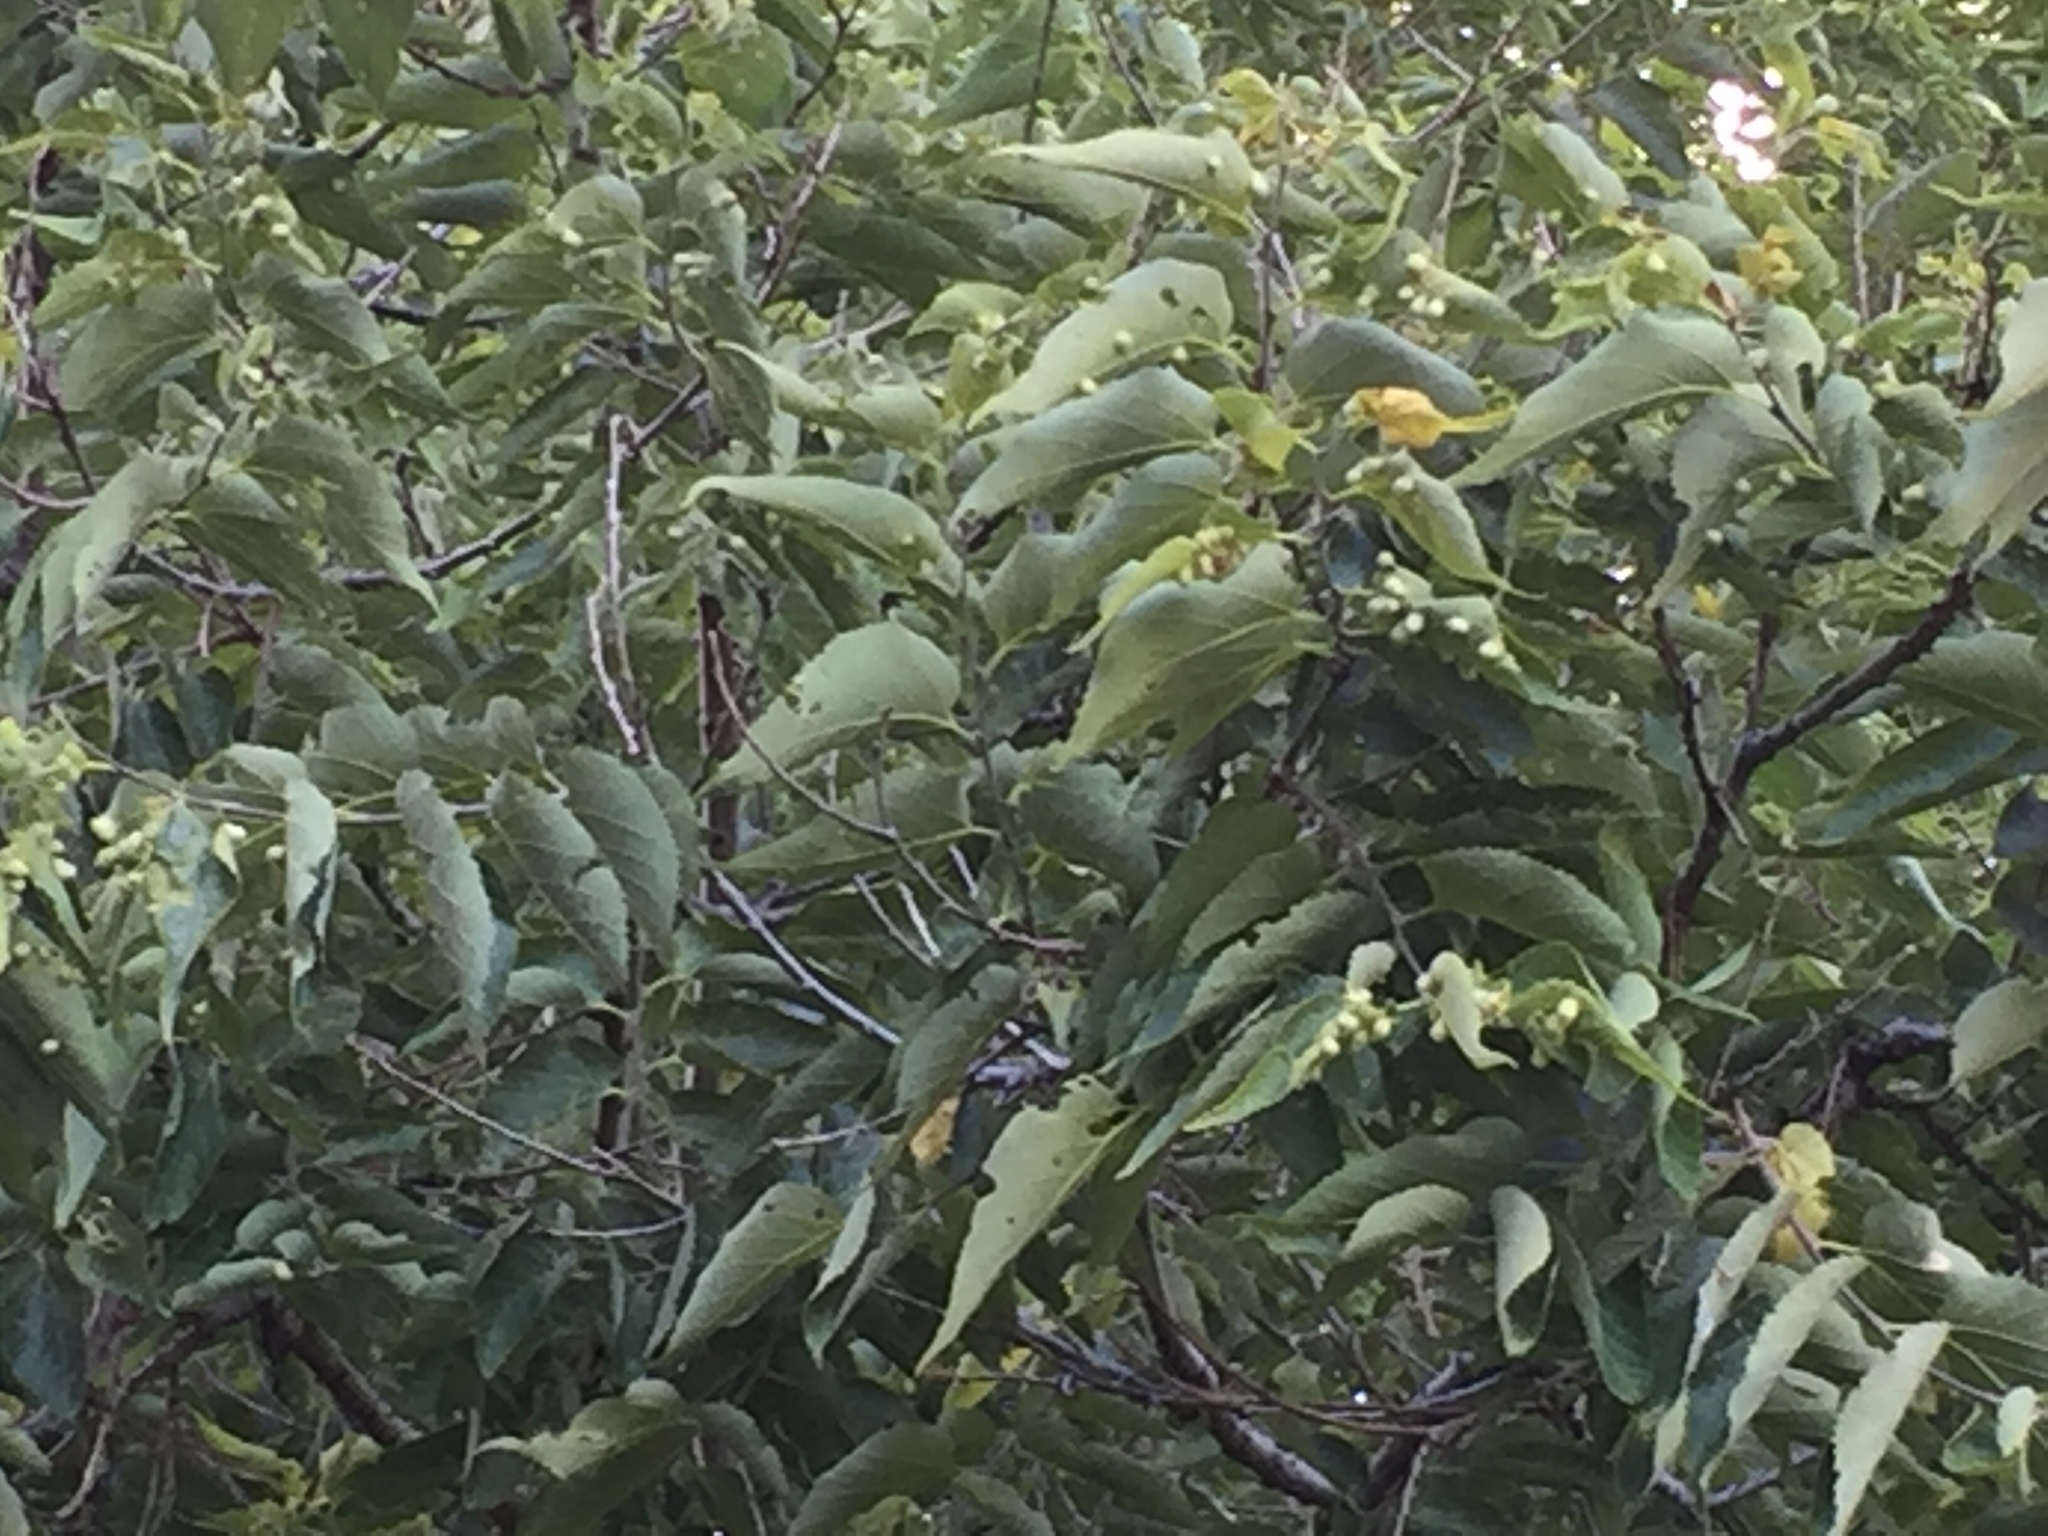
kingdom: Plantae
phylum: Tracheophyta
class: Magnoliopsida
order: Rosales
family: Cannabaceae
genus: Celtis
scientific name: Celtis occidentalis
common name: Common hackberry
